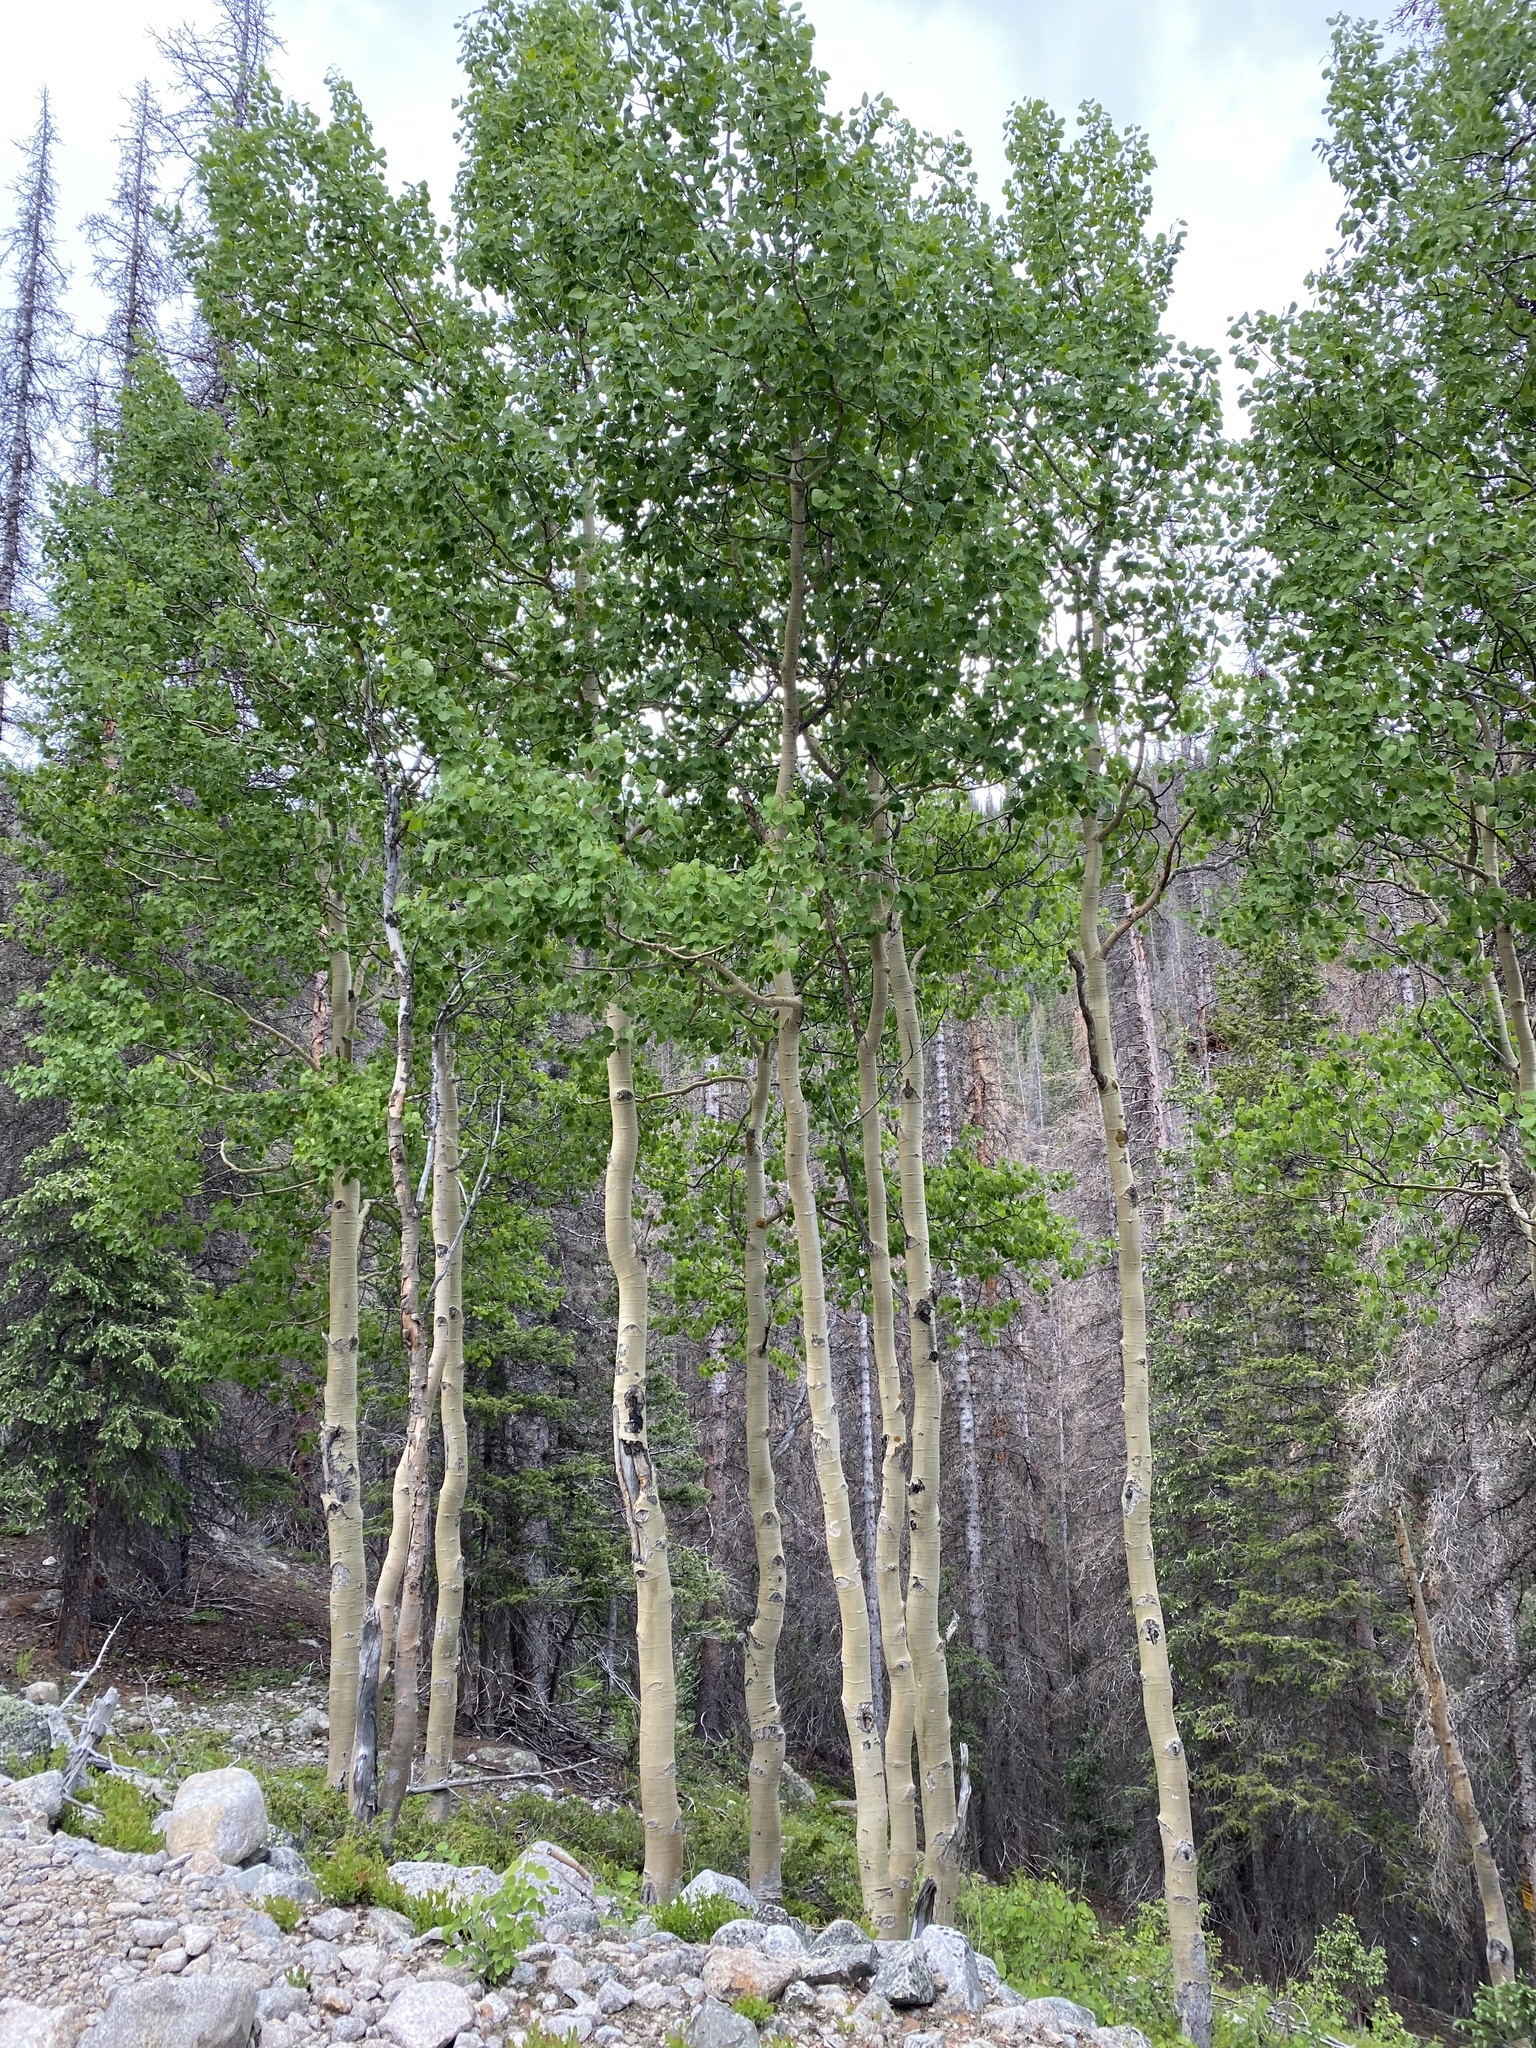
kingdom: Plantae
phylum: Tracheophyta
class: Magnoliopsida
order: Malpighiales
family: Salicaceae
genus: Populus
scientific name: Populus tremuloides
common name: Quaking aspen
